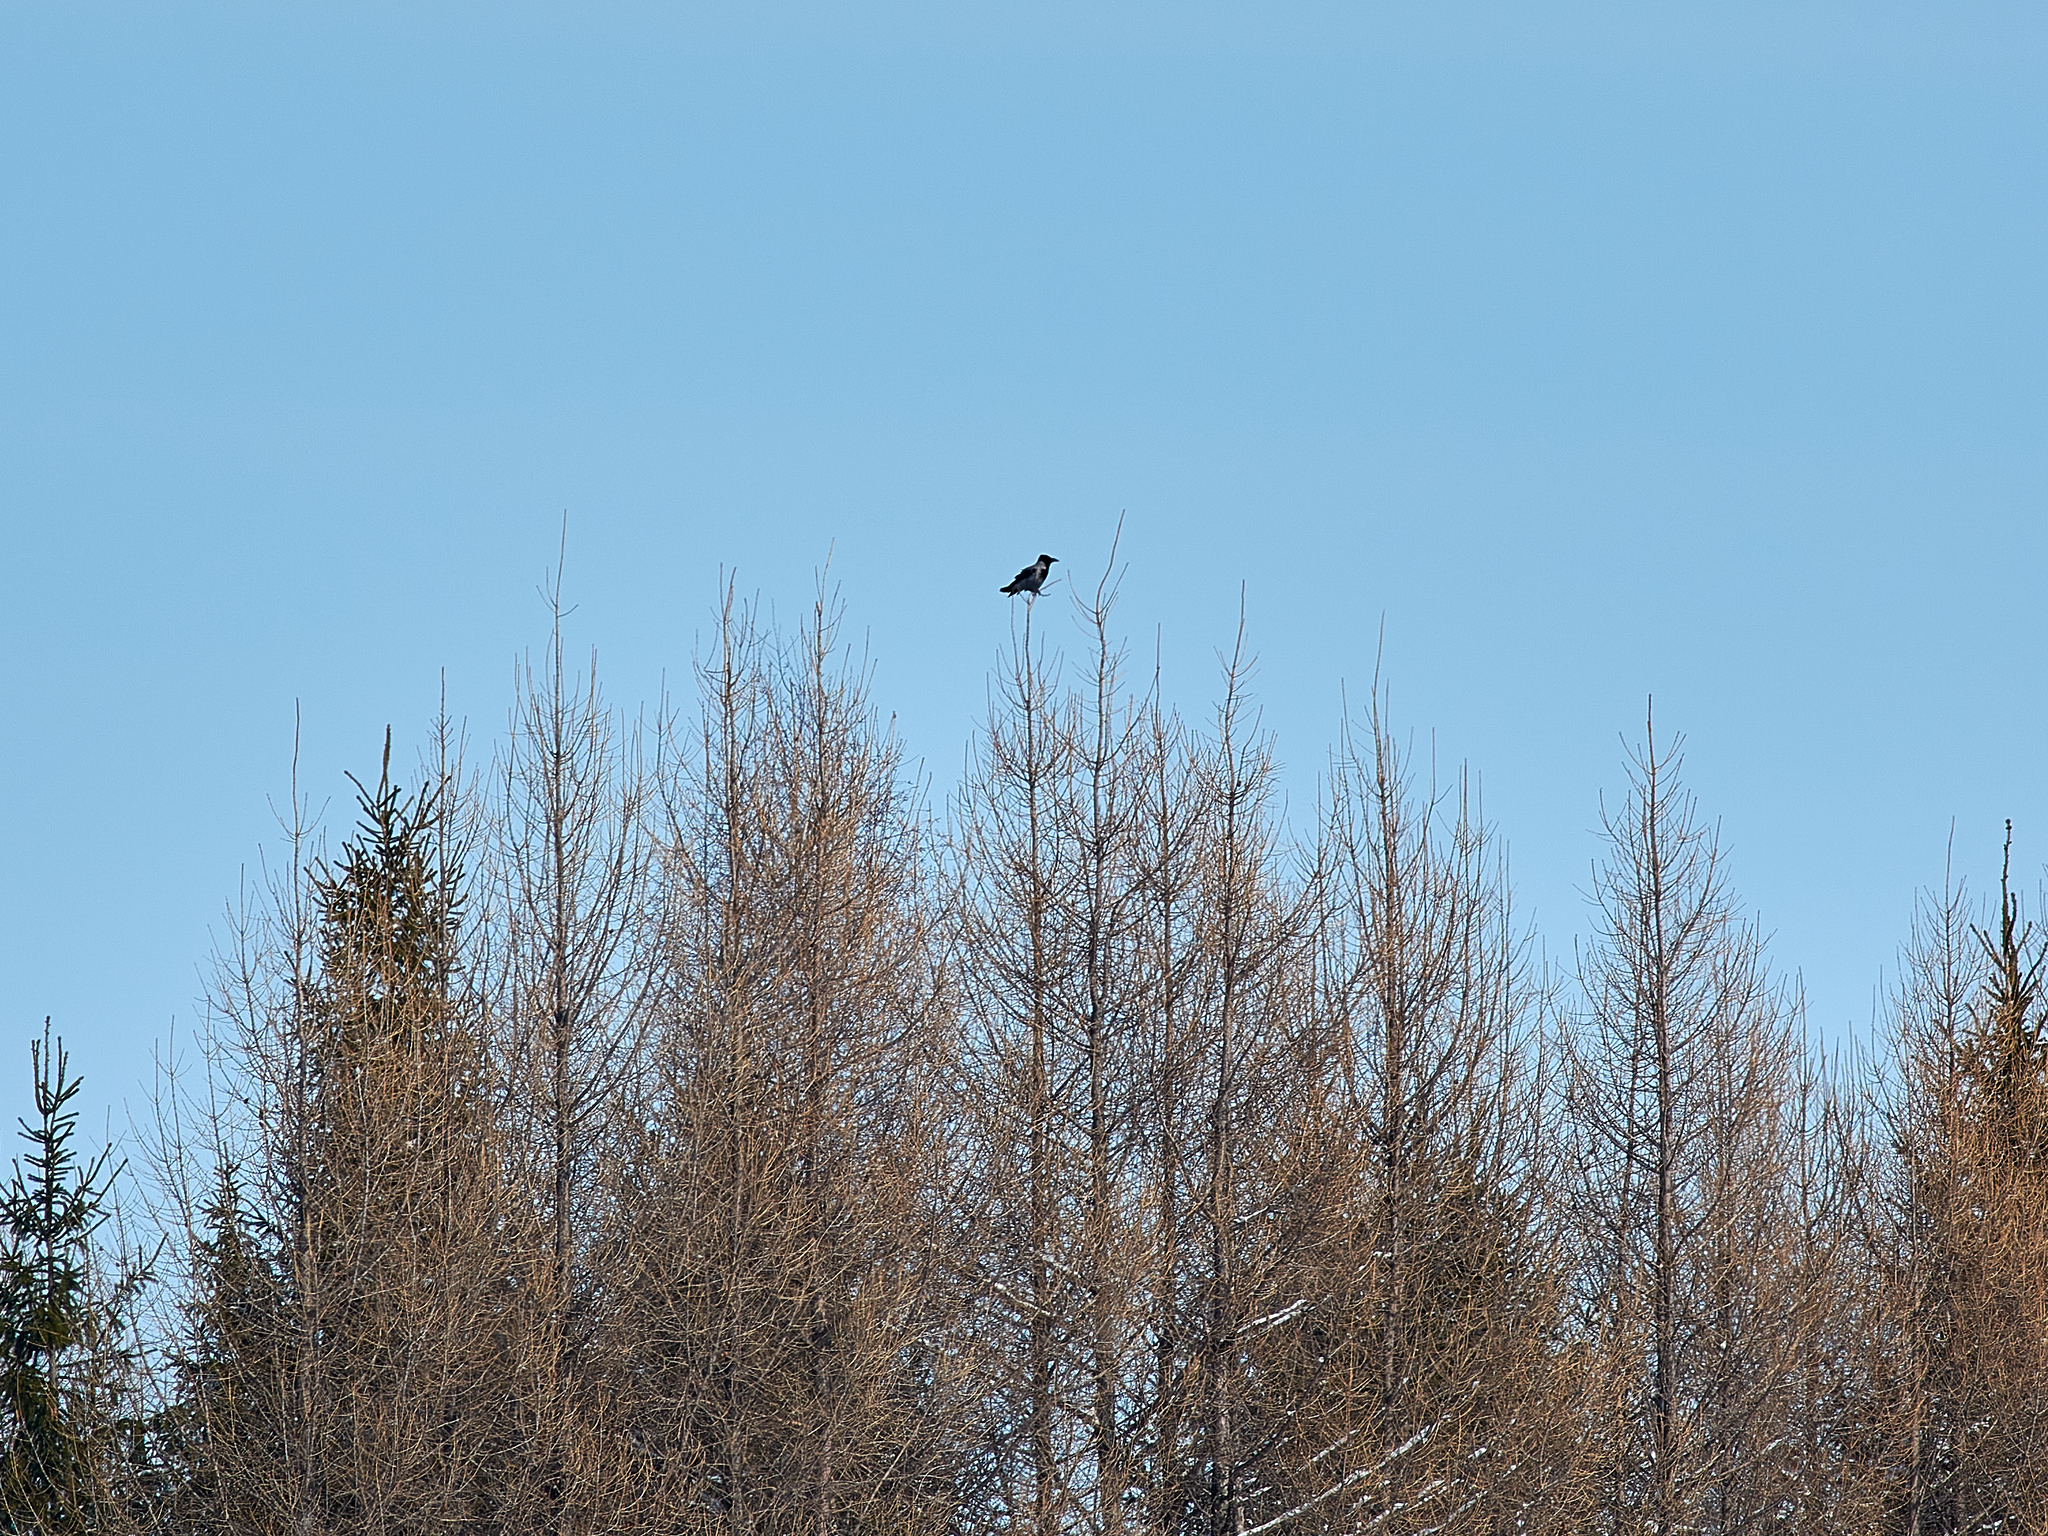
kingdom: Animalia
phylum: Chordata
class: Aves
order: Passeriformes
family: Corvidae
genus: Corvus
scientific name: Corvus cornix
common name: Hooded crow
